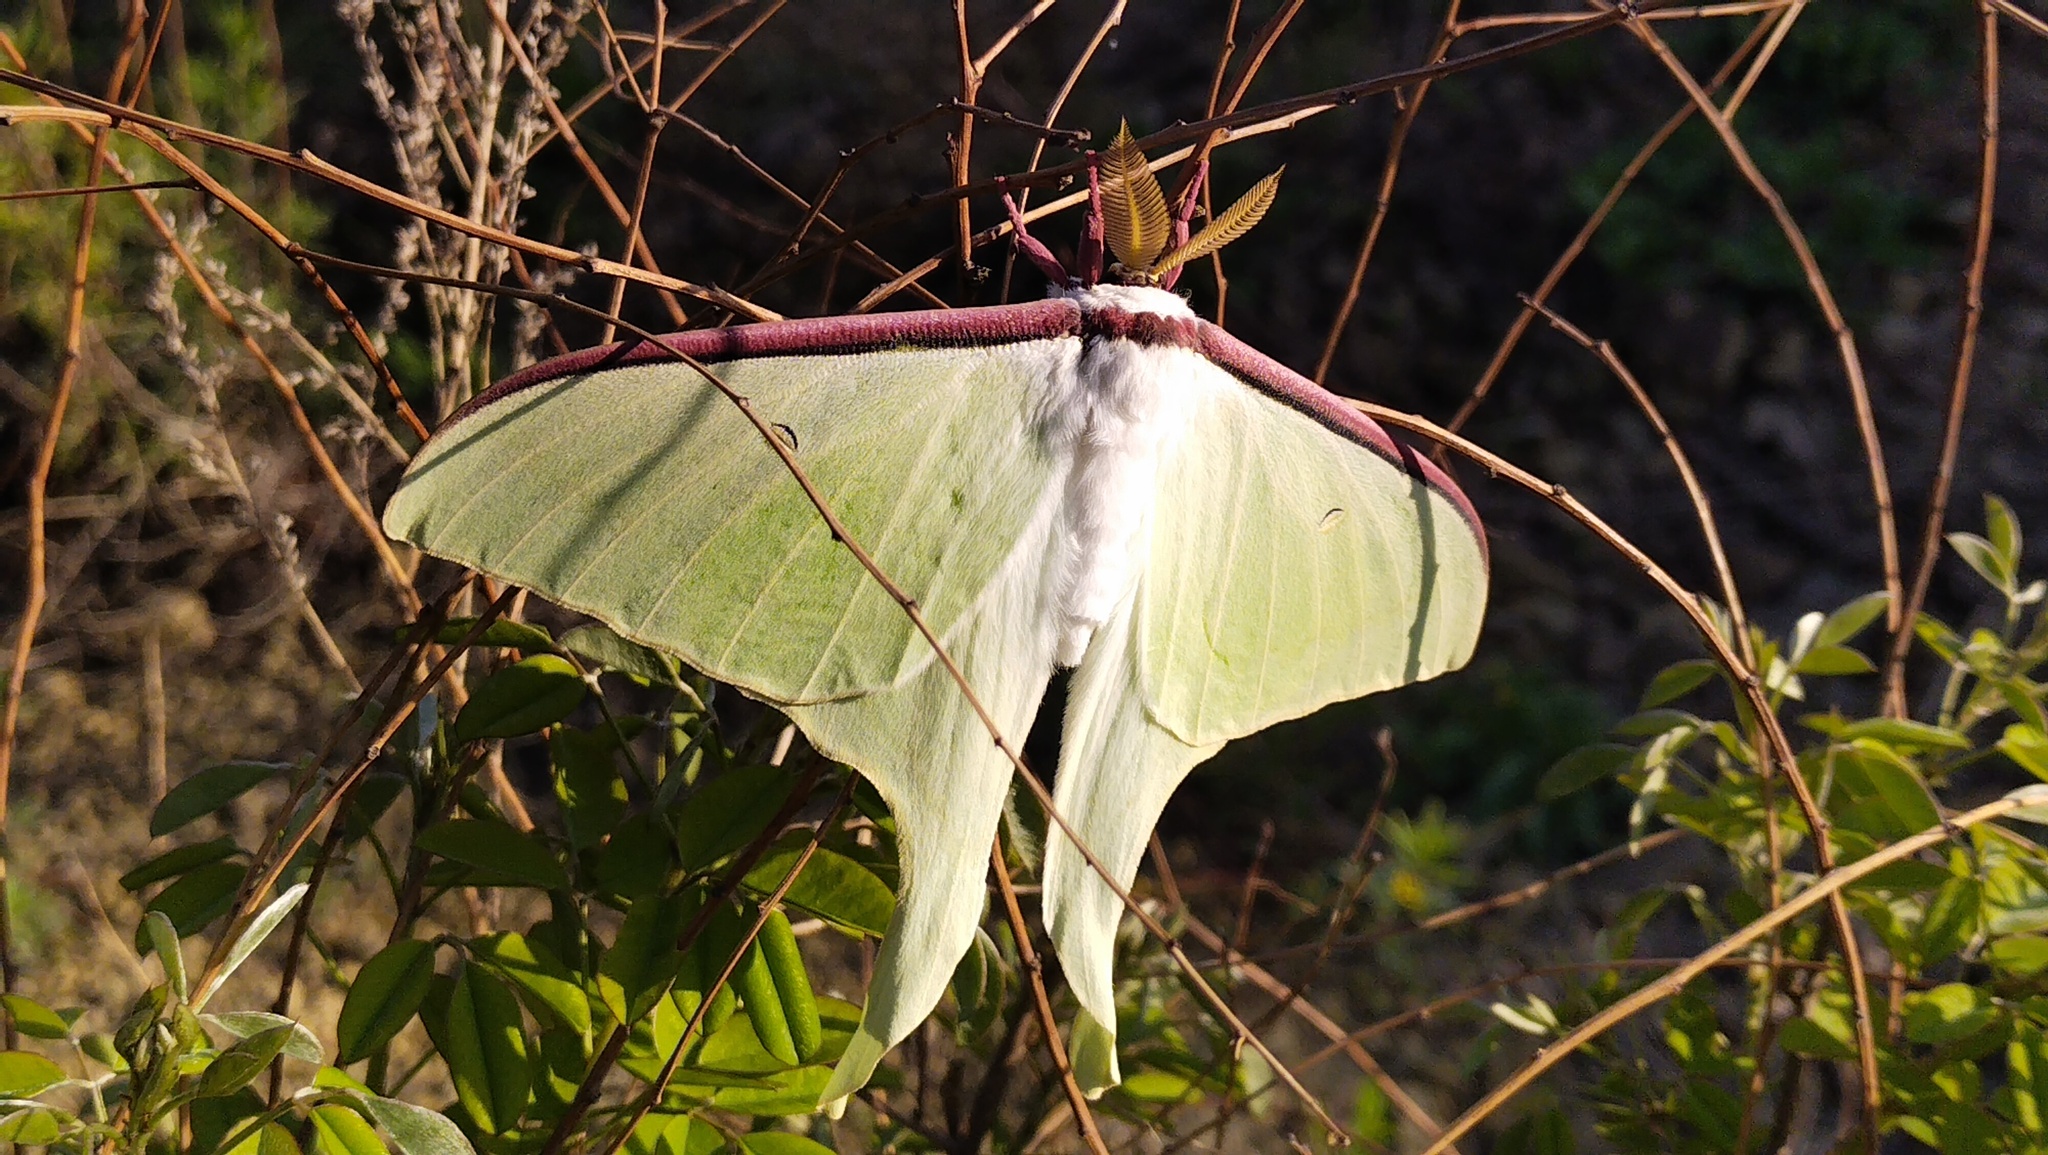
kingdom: Animalia
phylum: Arthropoda
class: Insecta
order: Lepidoptera
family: Saturniidae
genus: Actias
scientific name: Actias artemis
